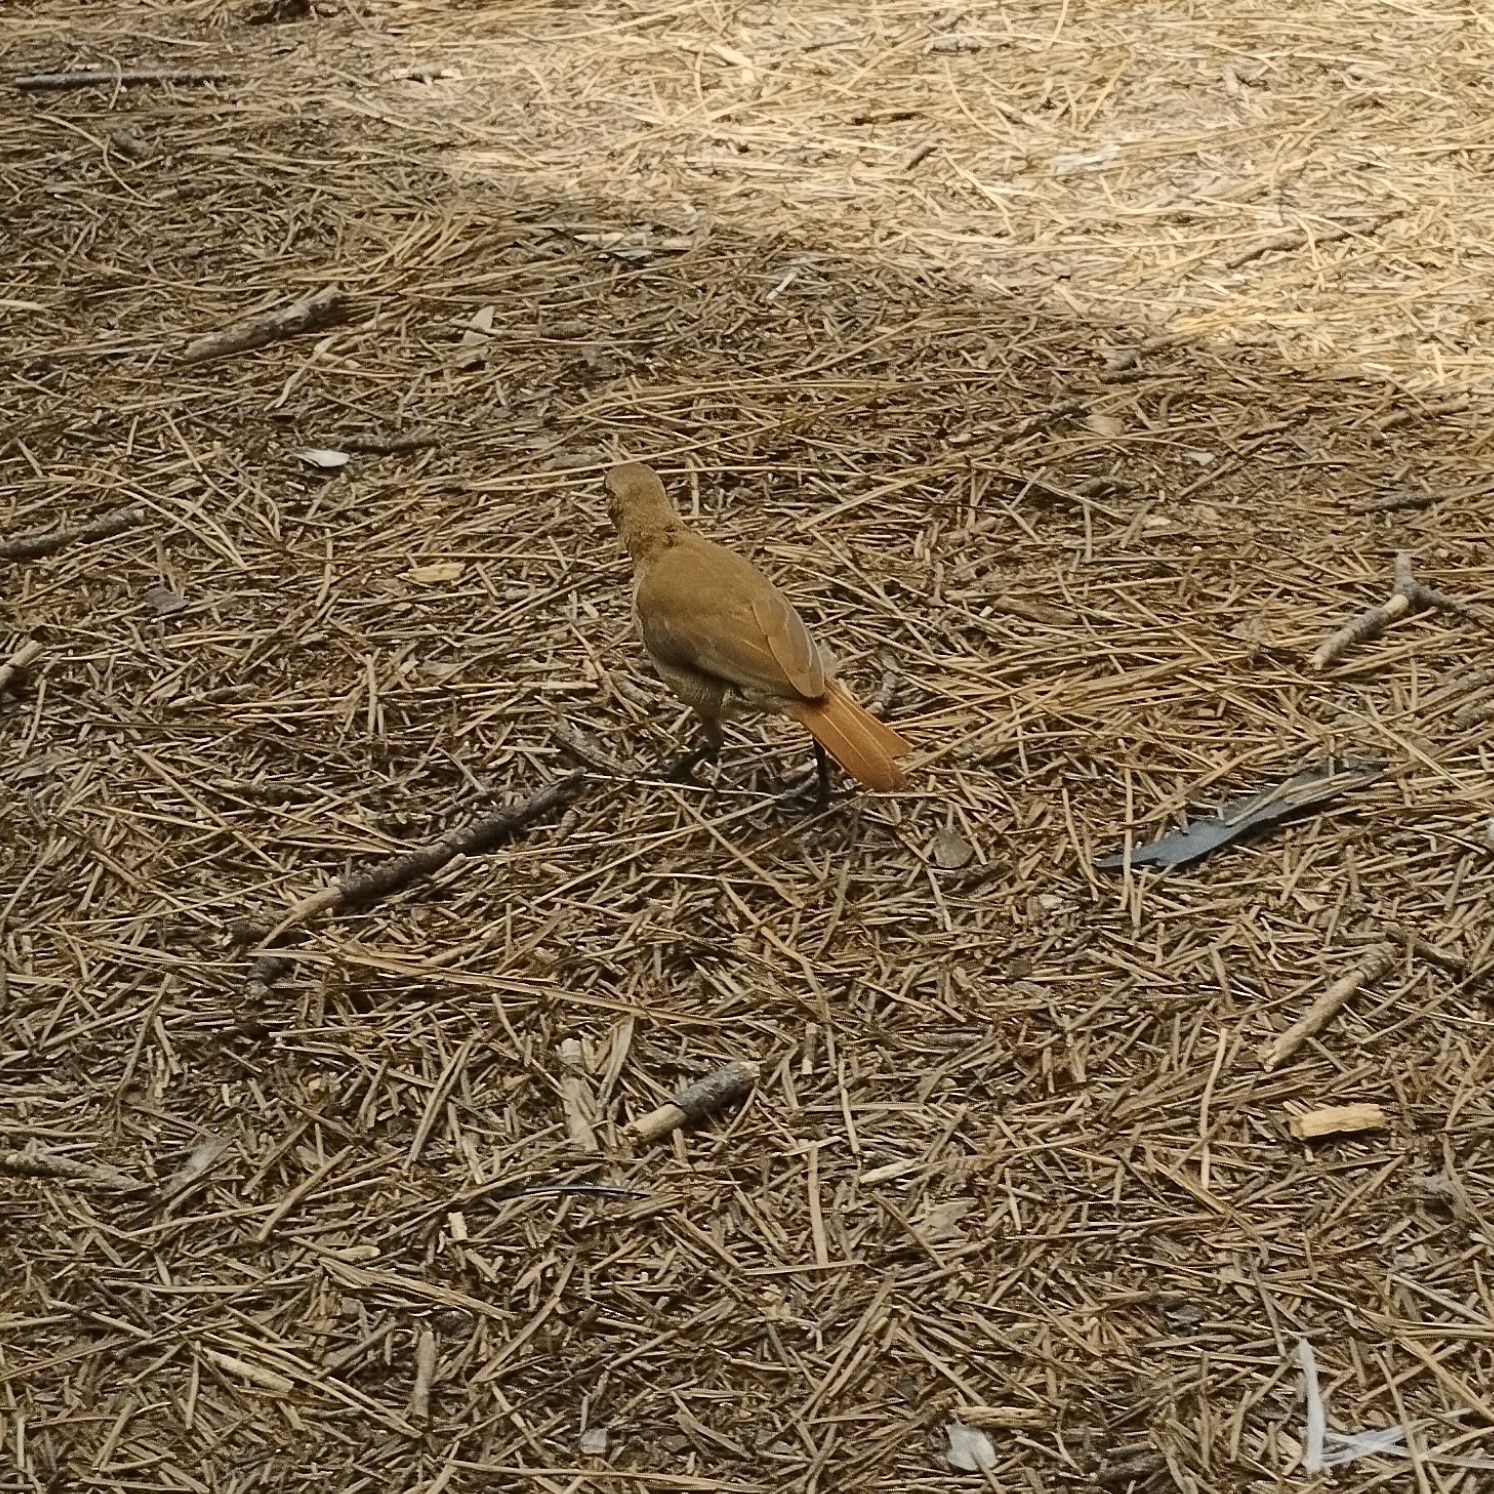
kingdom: Animalia
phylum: Chordata
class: Aves
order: Passeriformes
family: Furnariidae
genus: Furnarius
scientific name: Furnarius rufus
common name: Rufous hornero
